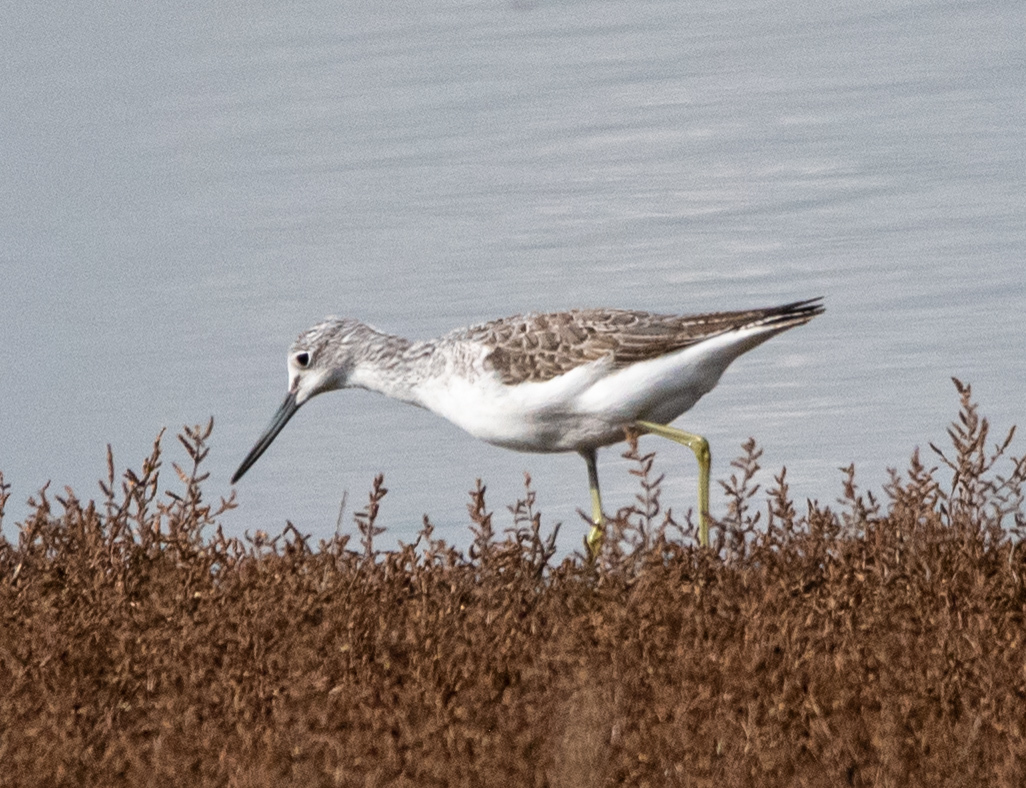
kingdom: Animalia
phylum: Chordata
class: Aves
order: Charadriiformes
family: Scolopacidae
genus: Tringa
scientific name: Tringa nebularia
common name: Common greenshank
